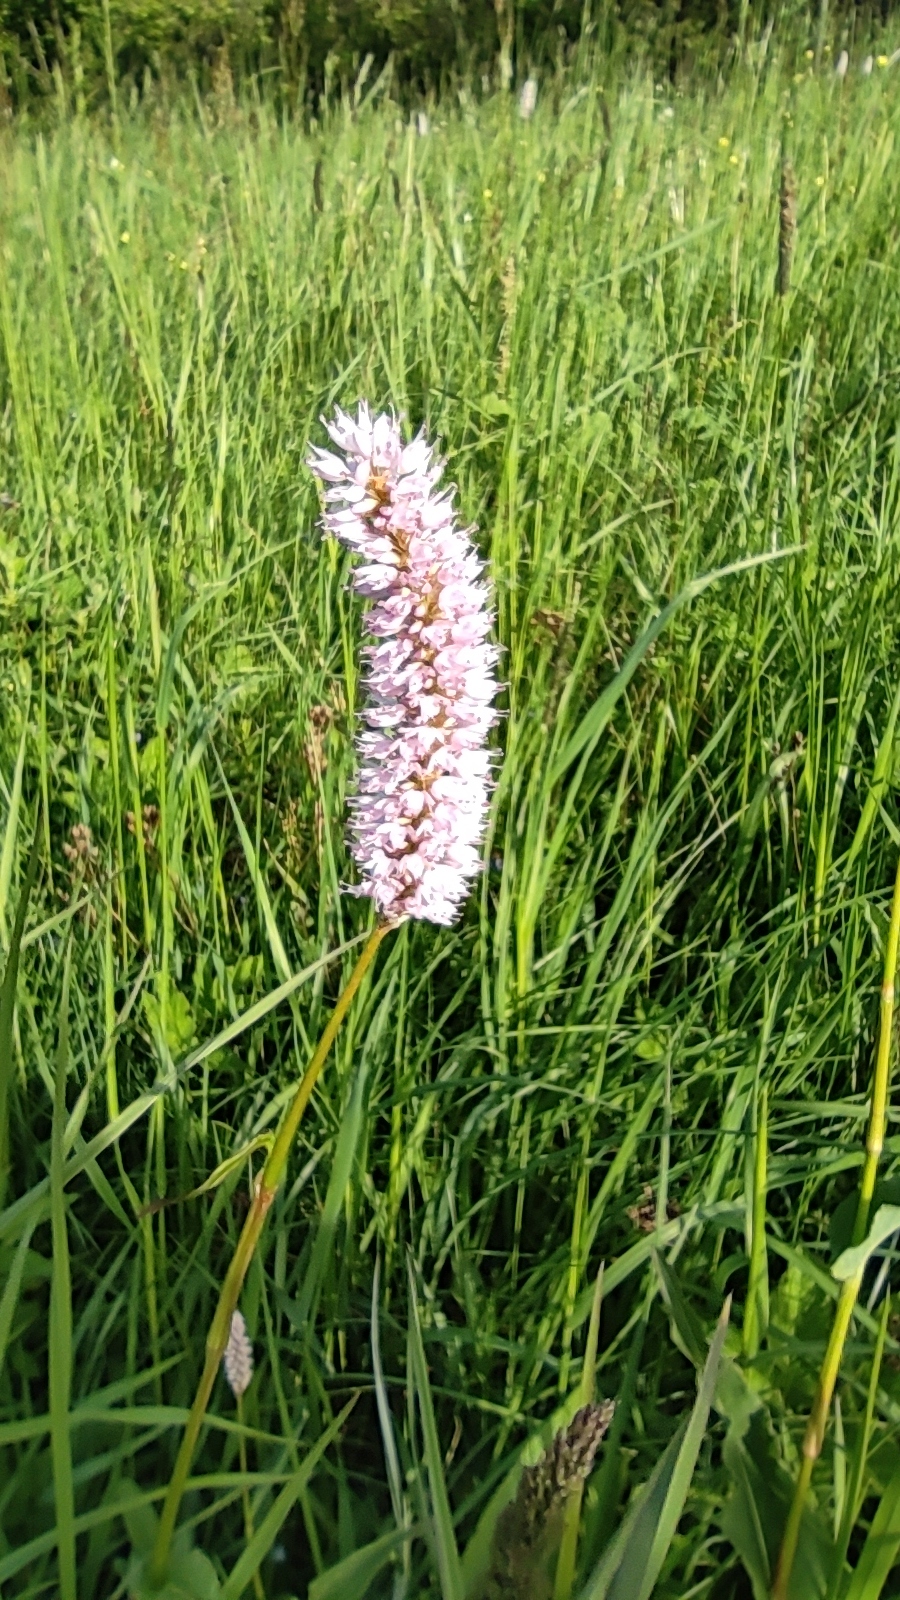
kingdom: Plantae
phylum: Tracheophyta
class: Magnoliopsida
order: Caryophyllales
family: Polygonaceae
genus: Bistorta
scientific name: Bistorta officinalis
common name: Common bistort
